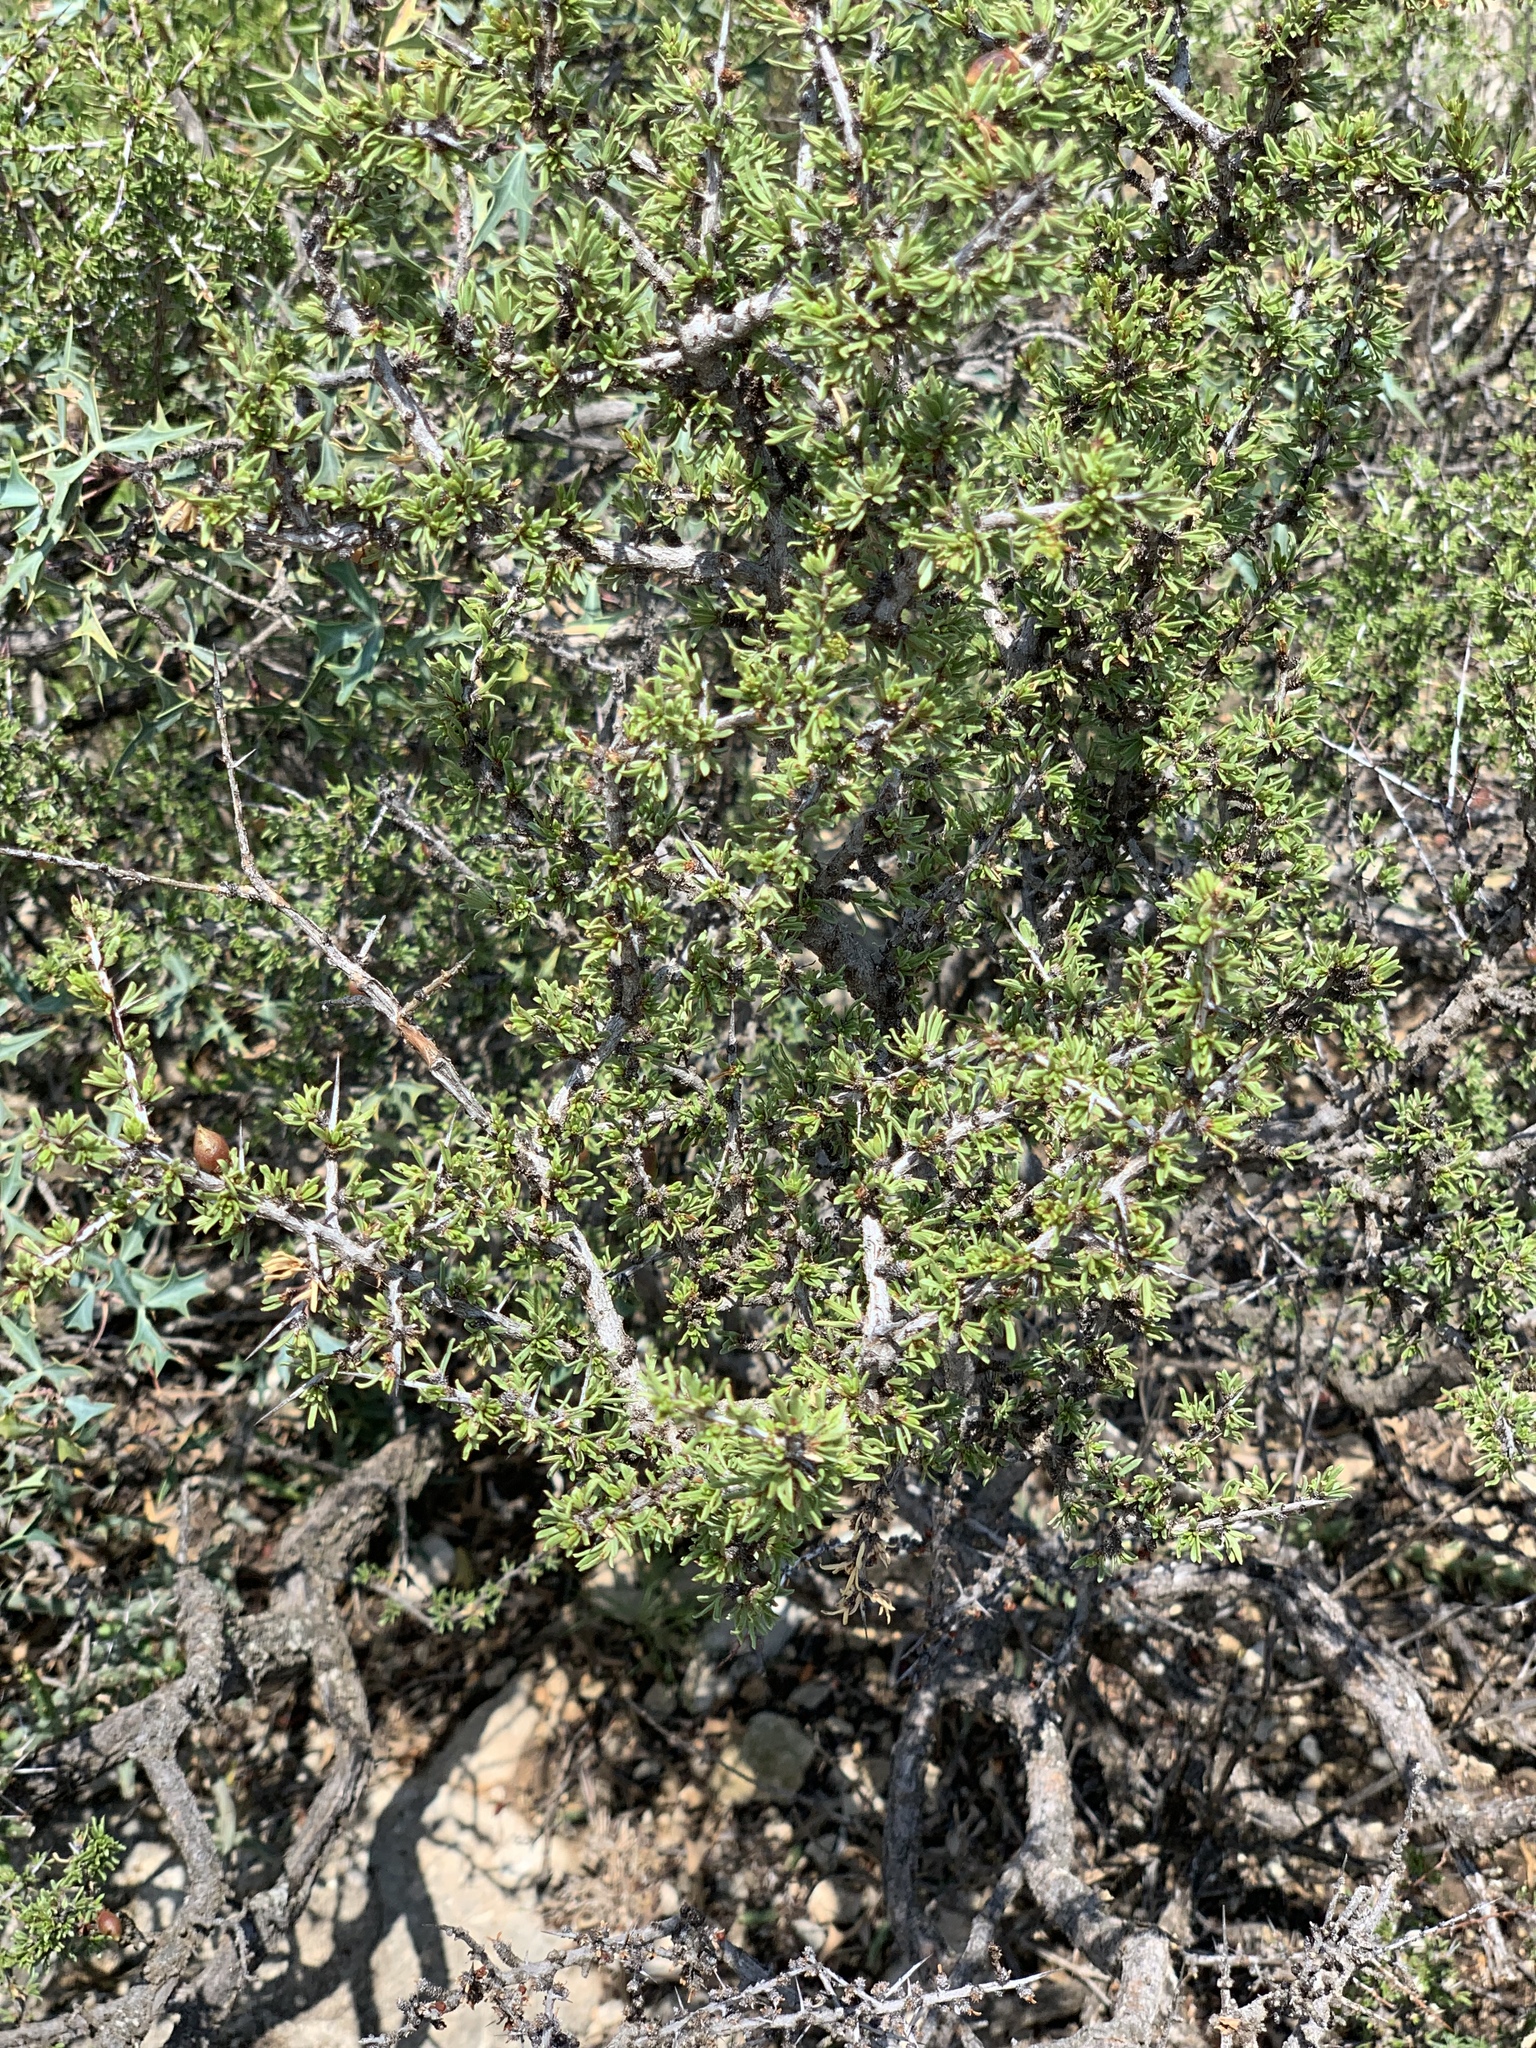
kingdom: Plantae
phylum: Tracheophyta
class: Magnoliopsida
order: Rosales
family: Rhamnaceae
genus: Condalia
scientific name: Condalia ericoides
